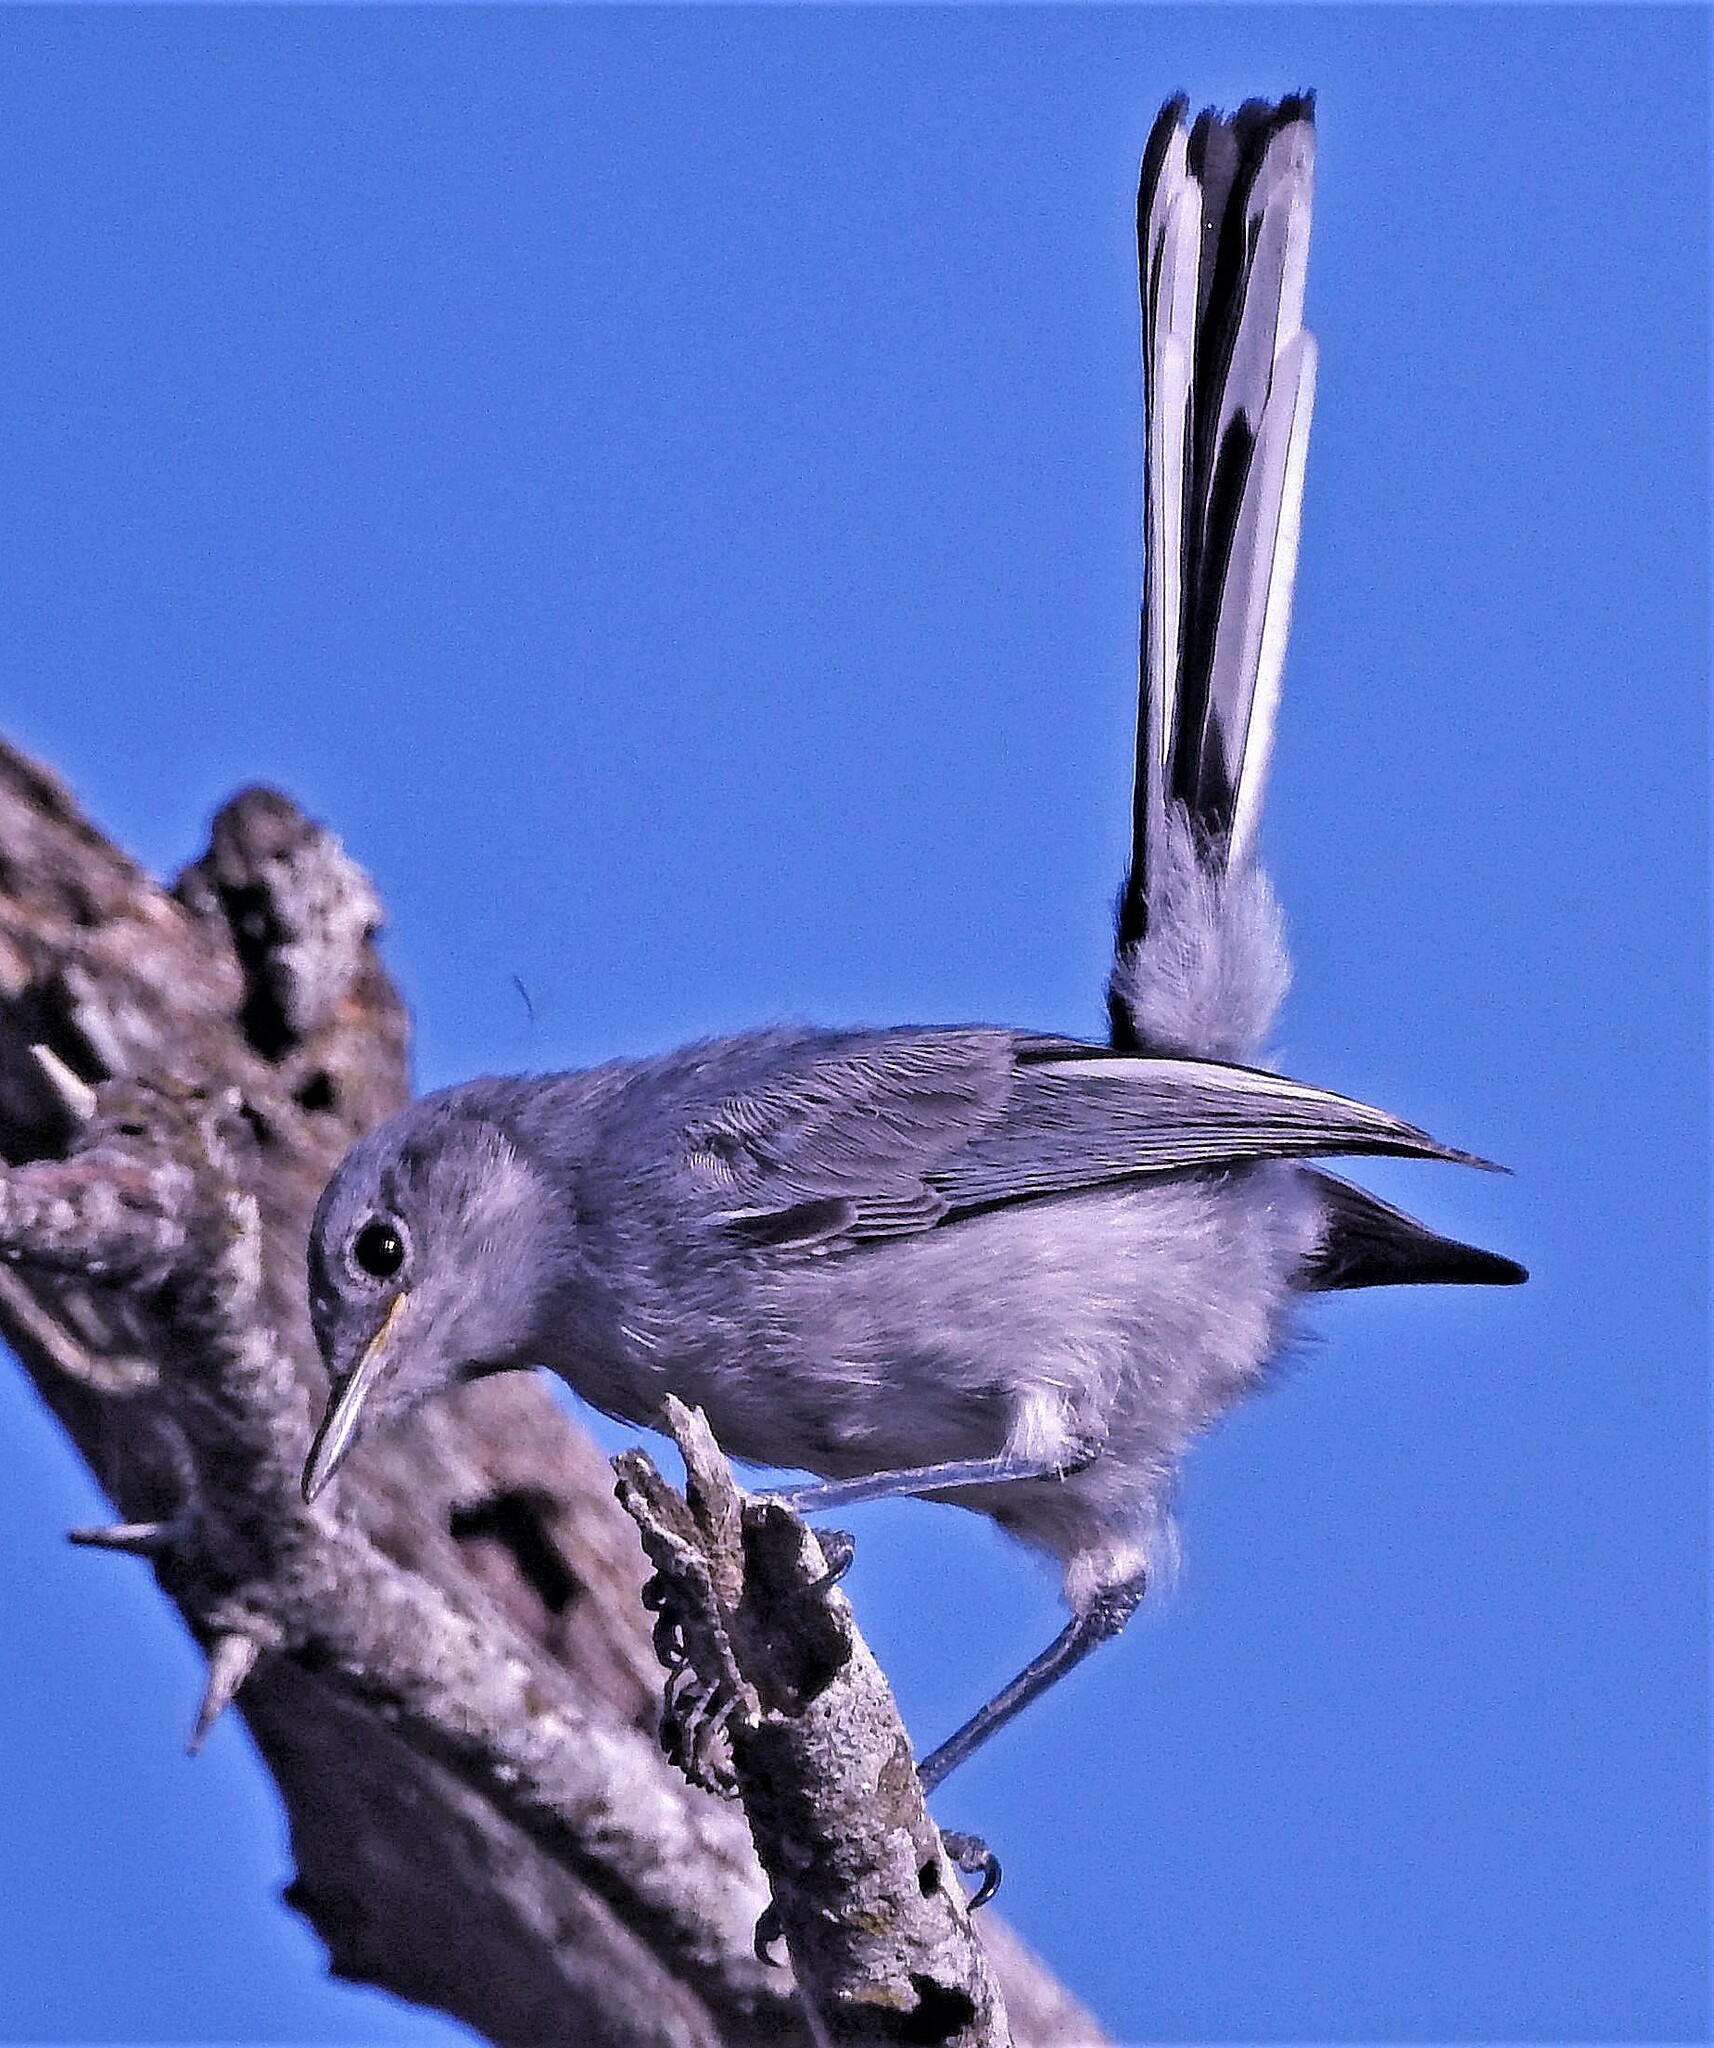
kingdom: Animalia
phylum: Chordata
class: Aves
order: Passeriformes
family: Polioptilidae
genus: Polioptila
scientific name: Polioptila dumicola
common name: Masked gnatcatcher
